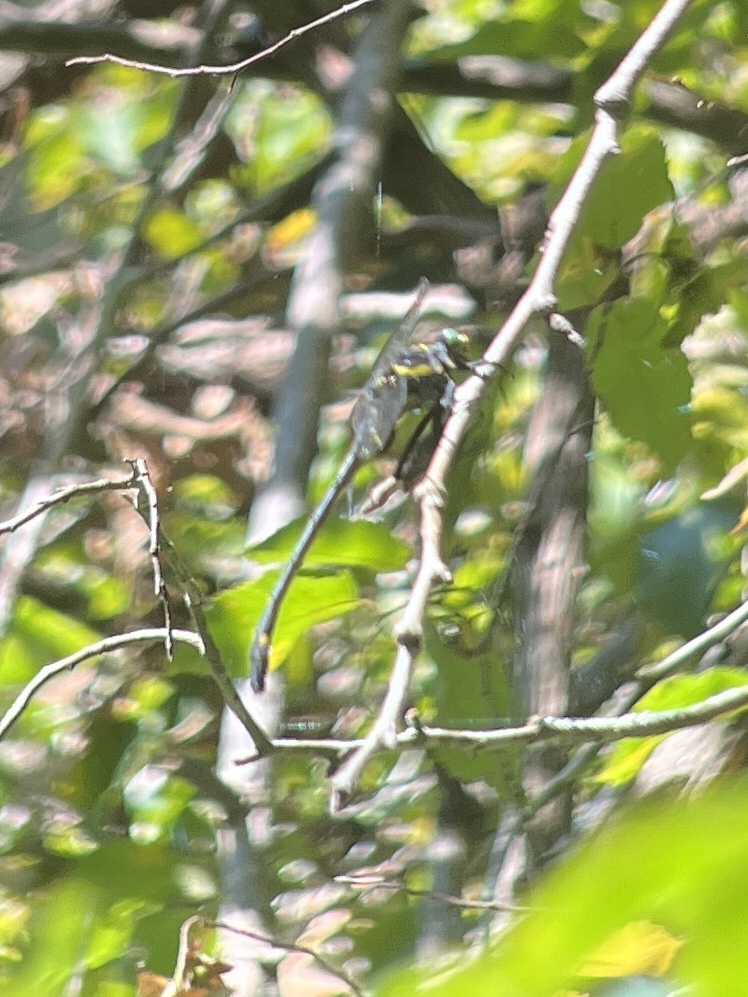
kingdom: Animalia
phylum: Arthropoda
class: Insecta
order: Odonata
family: Gomphidae
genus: Hagenius
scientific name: Hagenius brevistylus
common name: Dragonhunter
